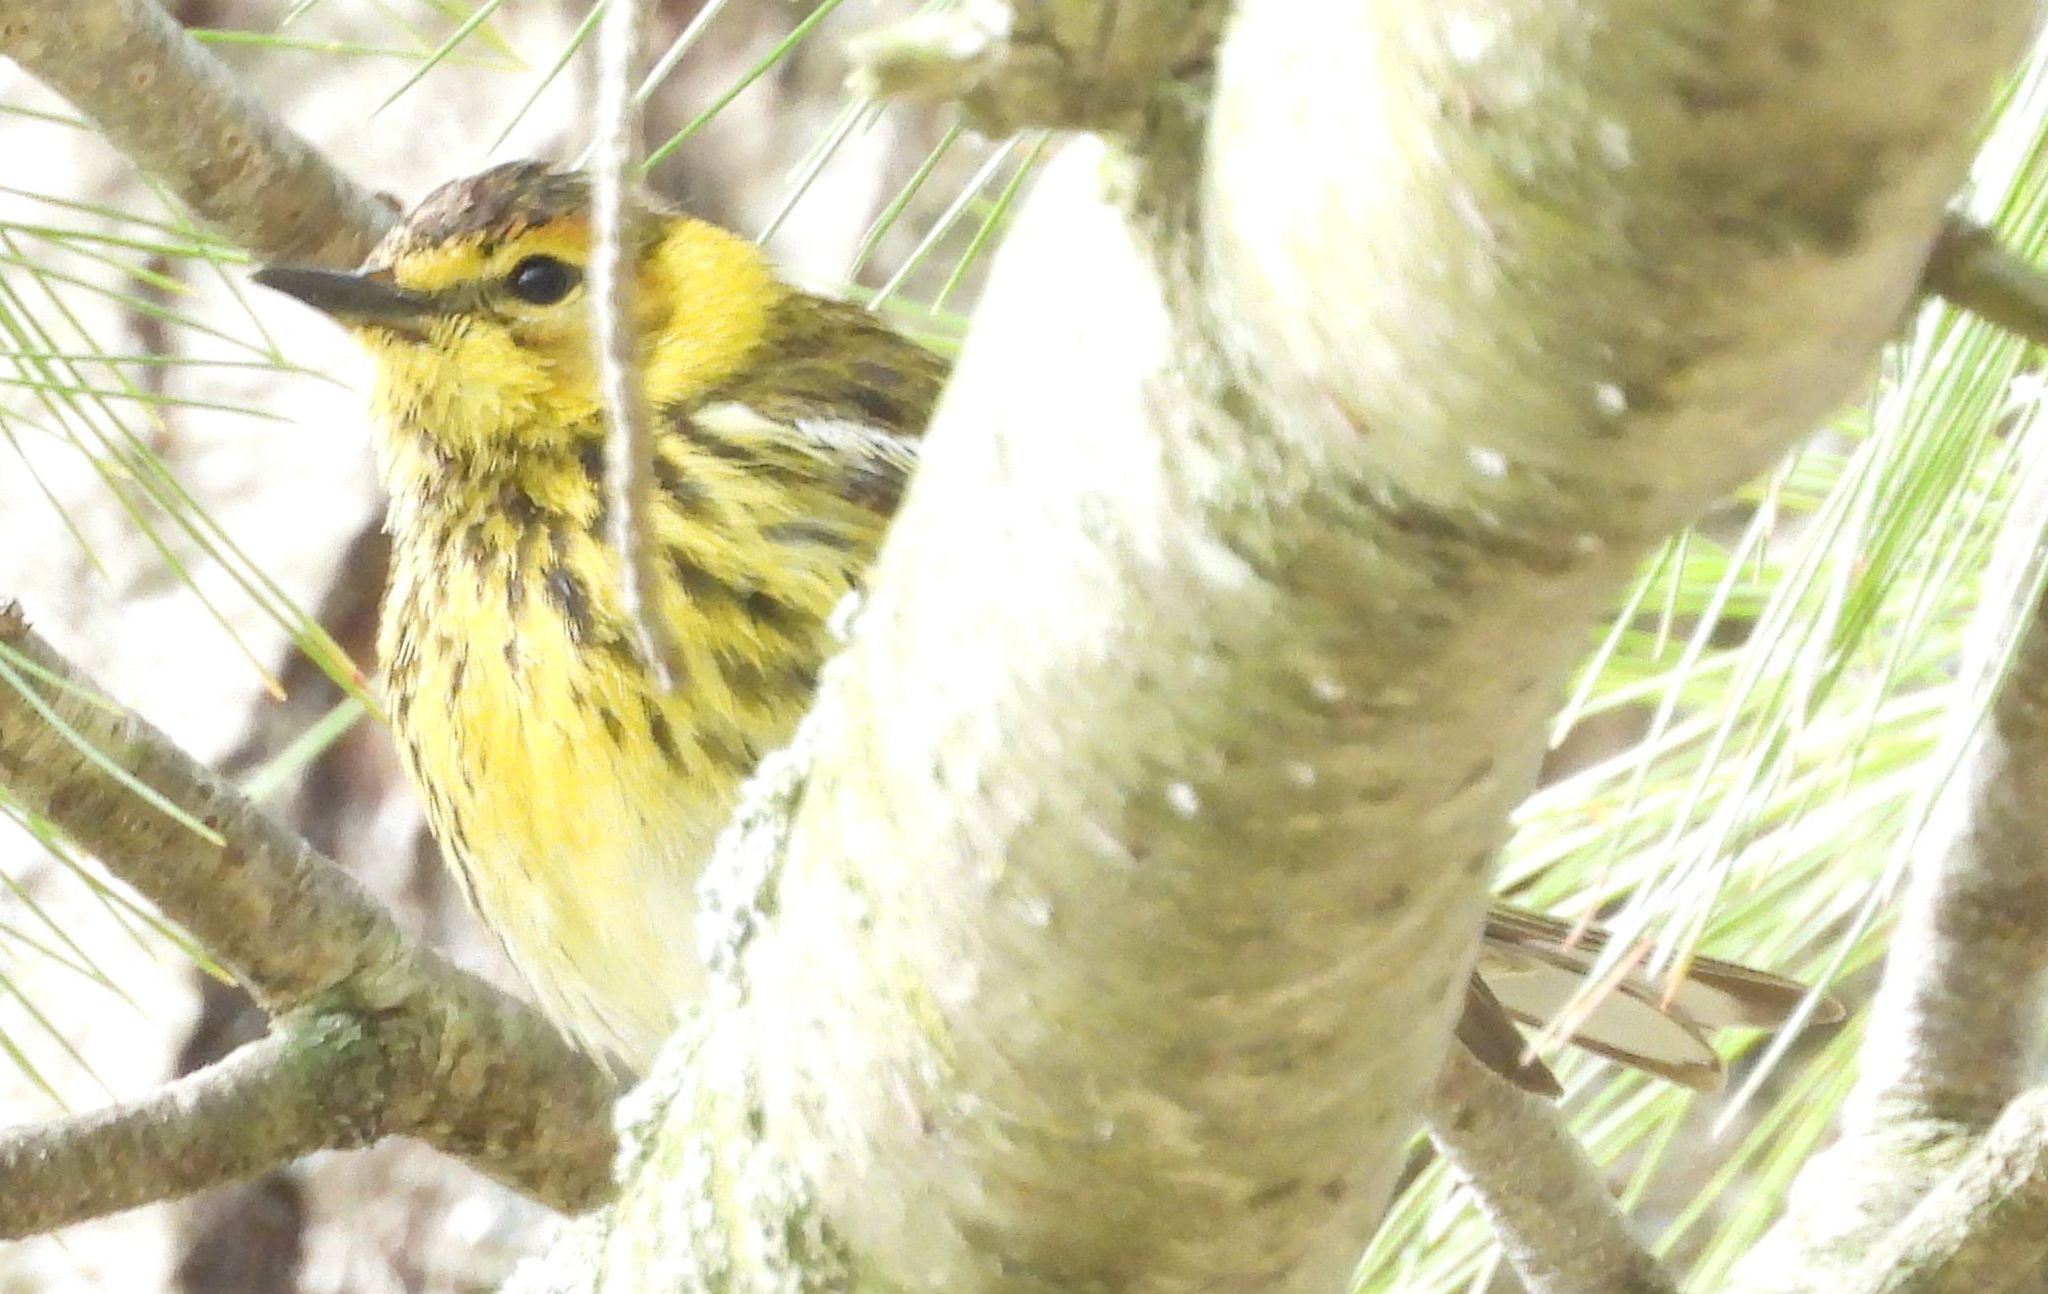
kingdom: Animalia
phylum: Chordata
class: Aves
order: Passeriformes
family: Parulidae
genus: Setophaga
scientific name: Setophaga tigrina
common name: Cape may warbler
